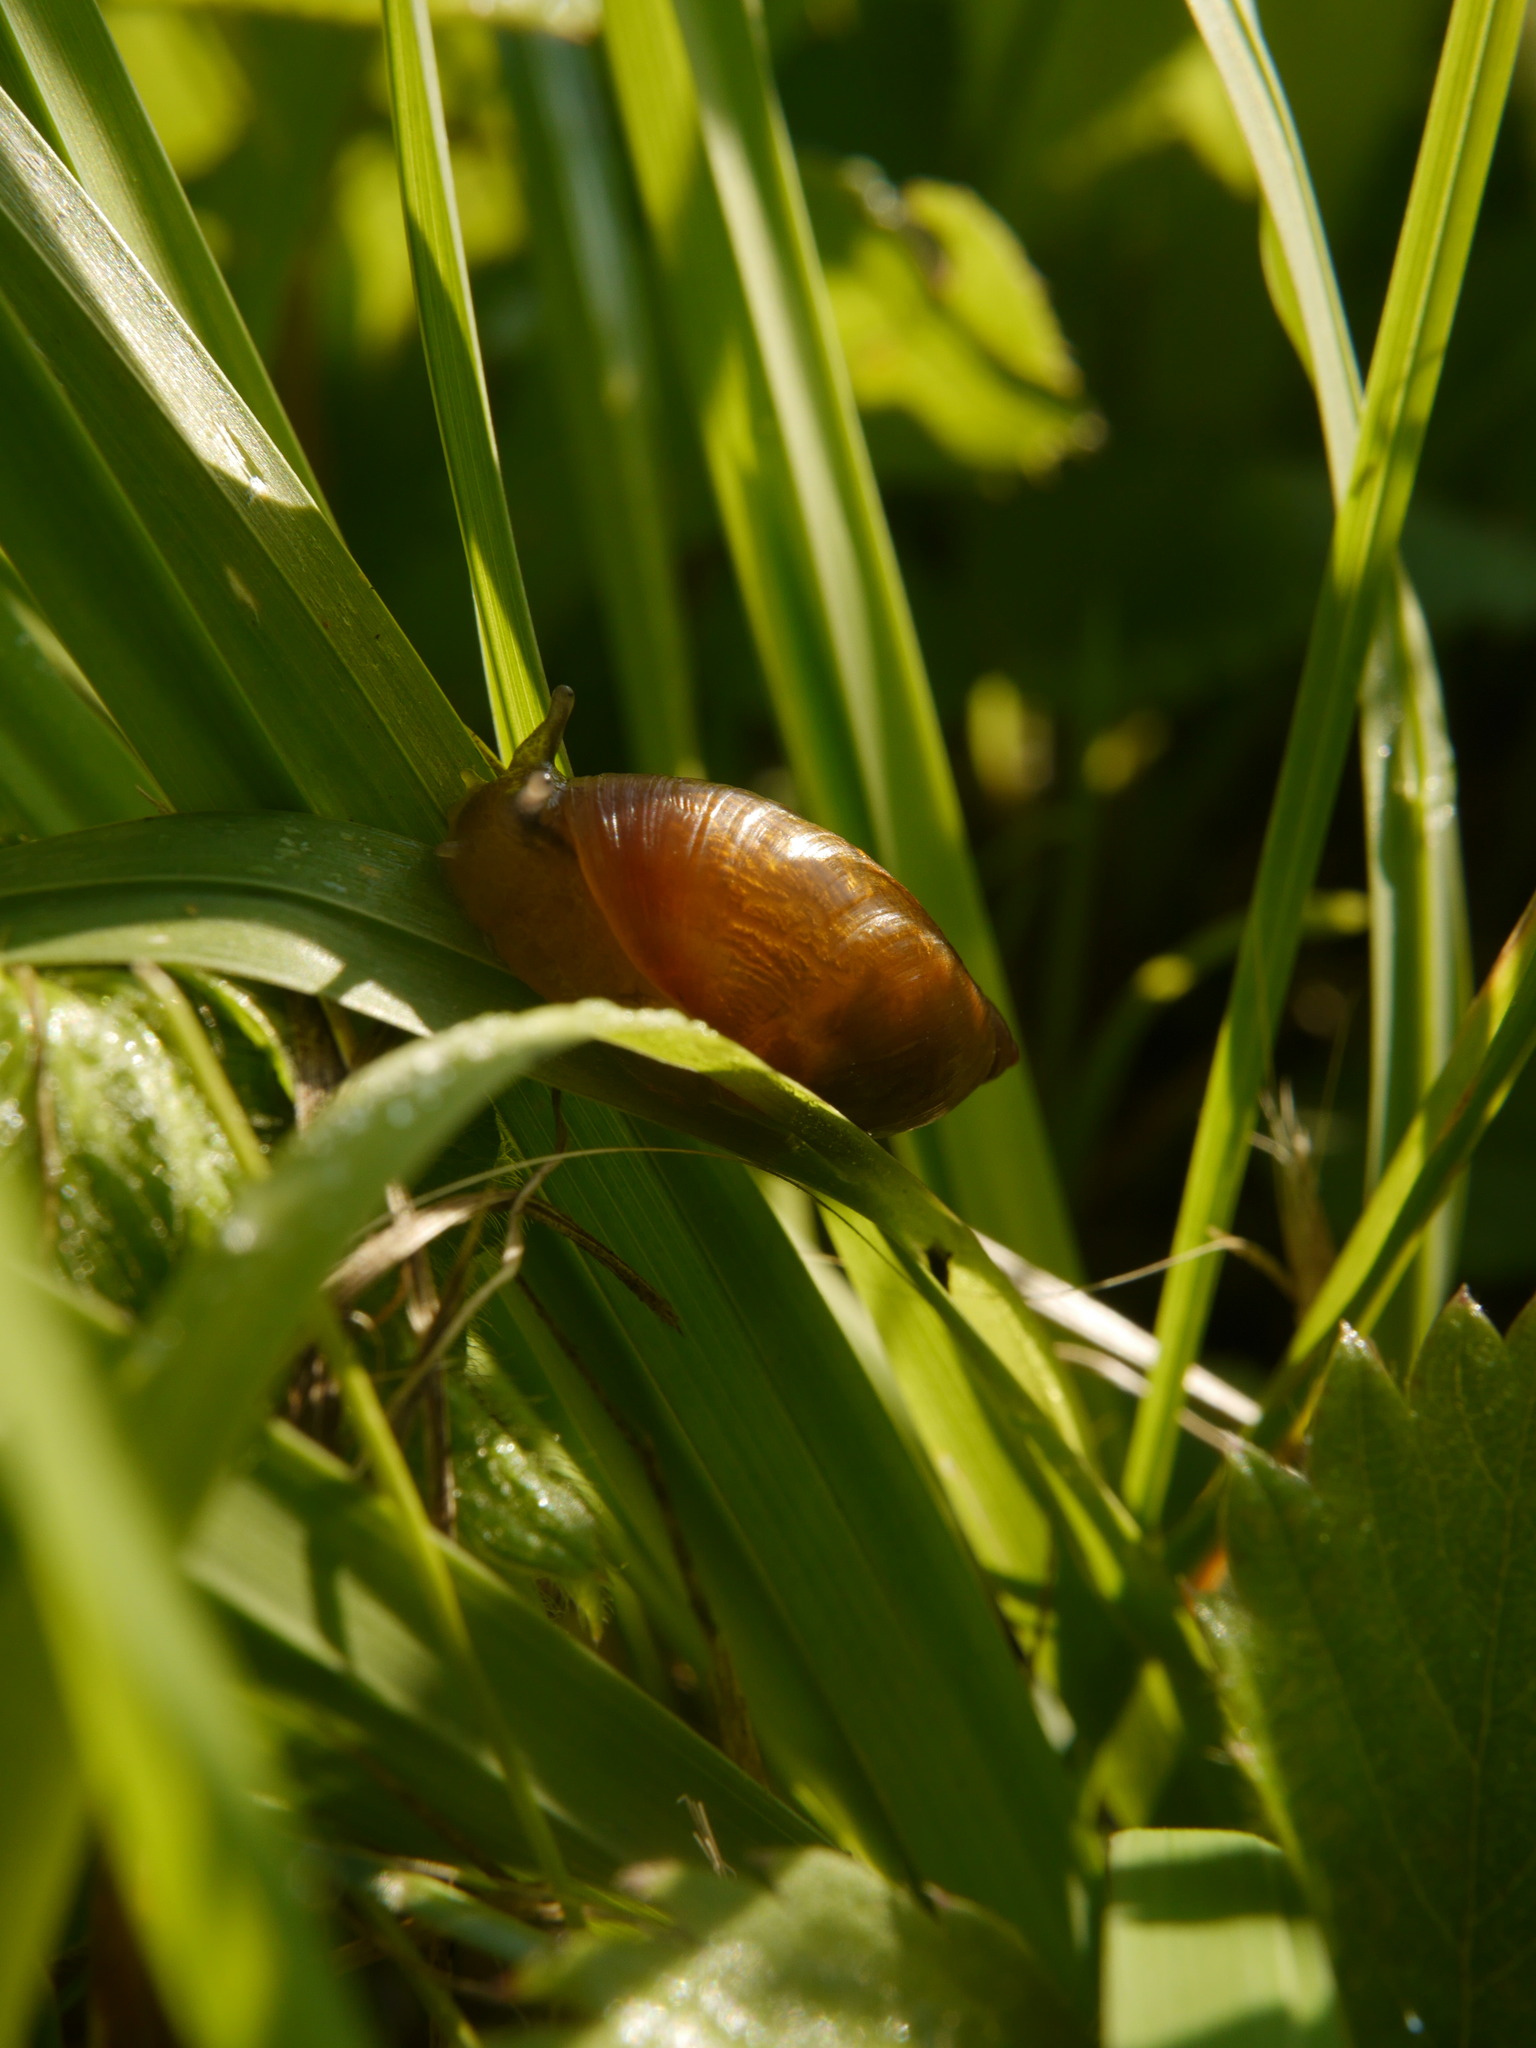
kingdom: Animalia
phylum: Mollusca
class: Gastropoda
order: Stylommatophora
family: Succineidae
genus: Succinea
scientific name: Succinea putris
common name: European ambersnail
